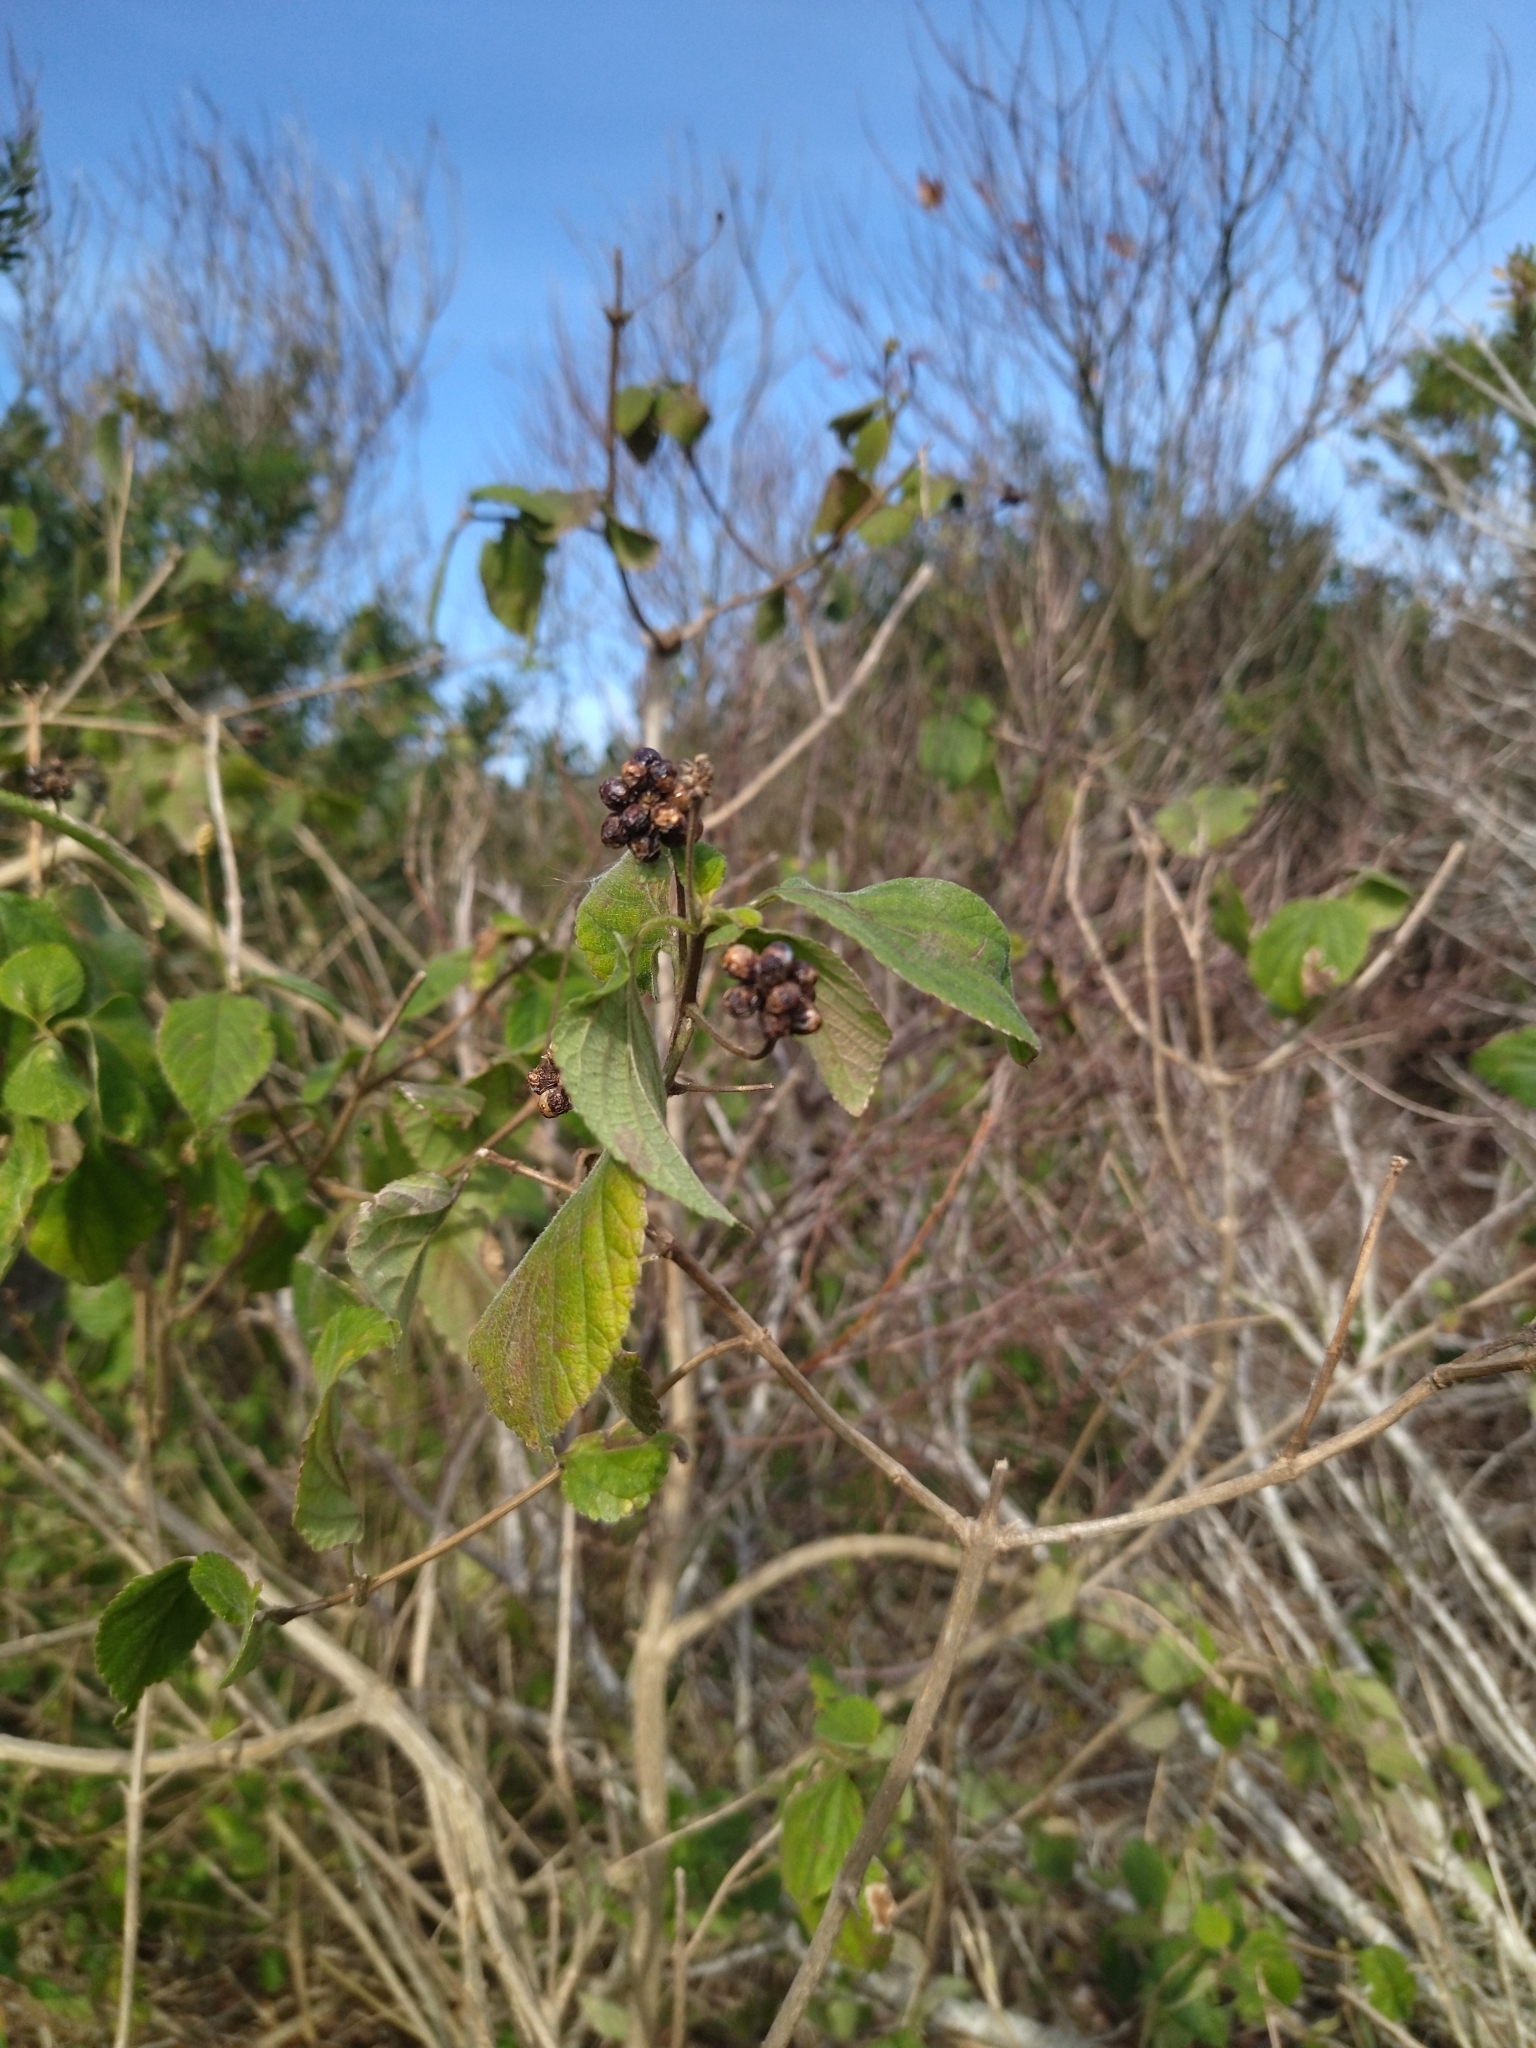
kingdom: Plantae
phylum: Tracheophyta
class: Magnoliopsida
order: Lamiales
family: Verbenaceae
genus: Lantana
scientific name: Lantana camara
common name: Lantana
